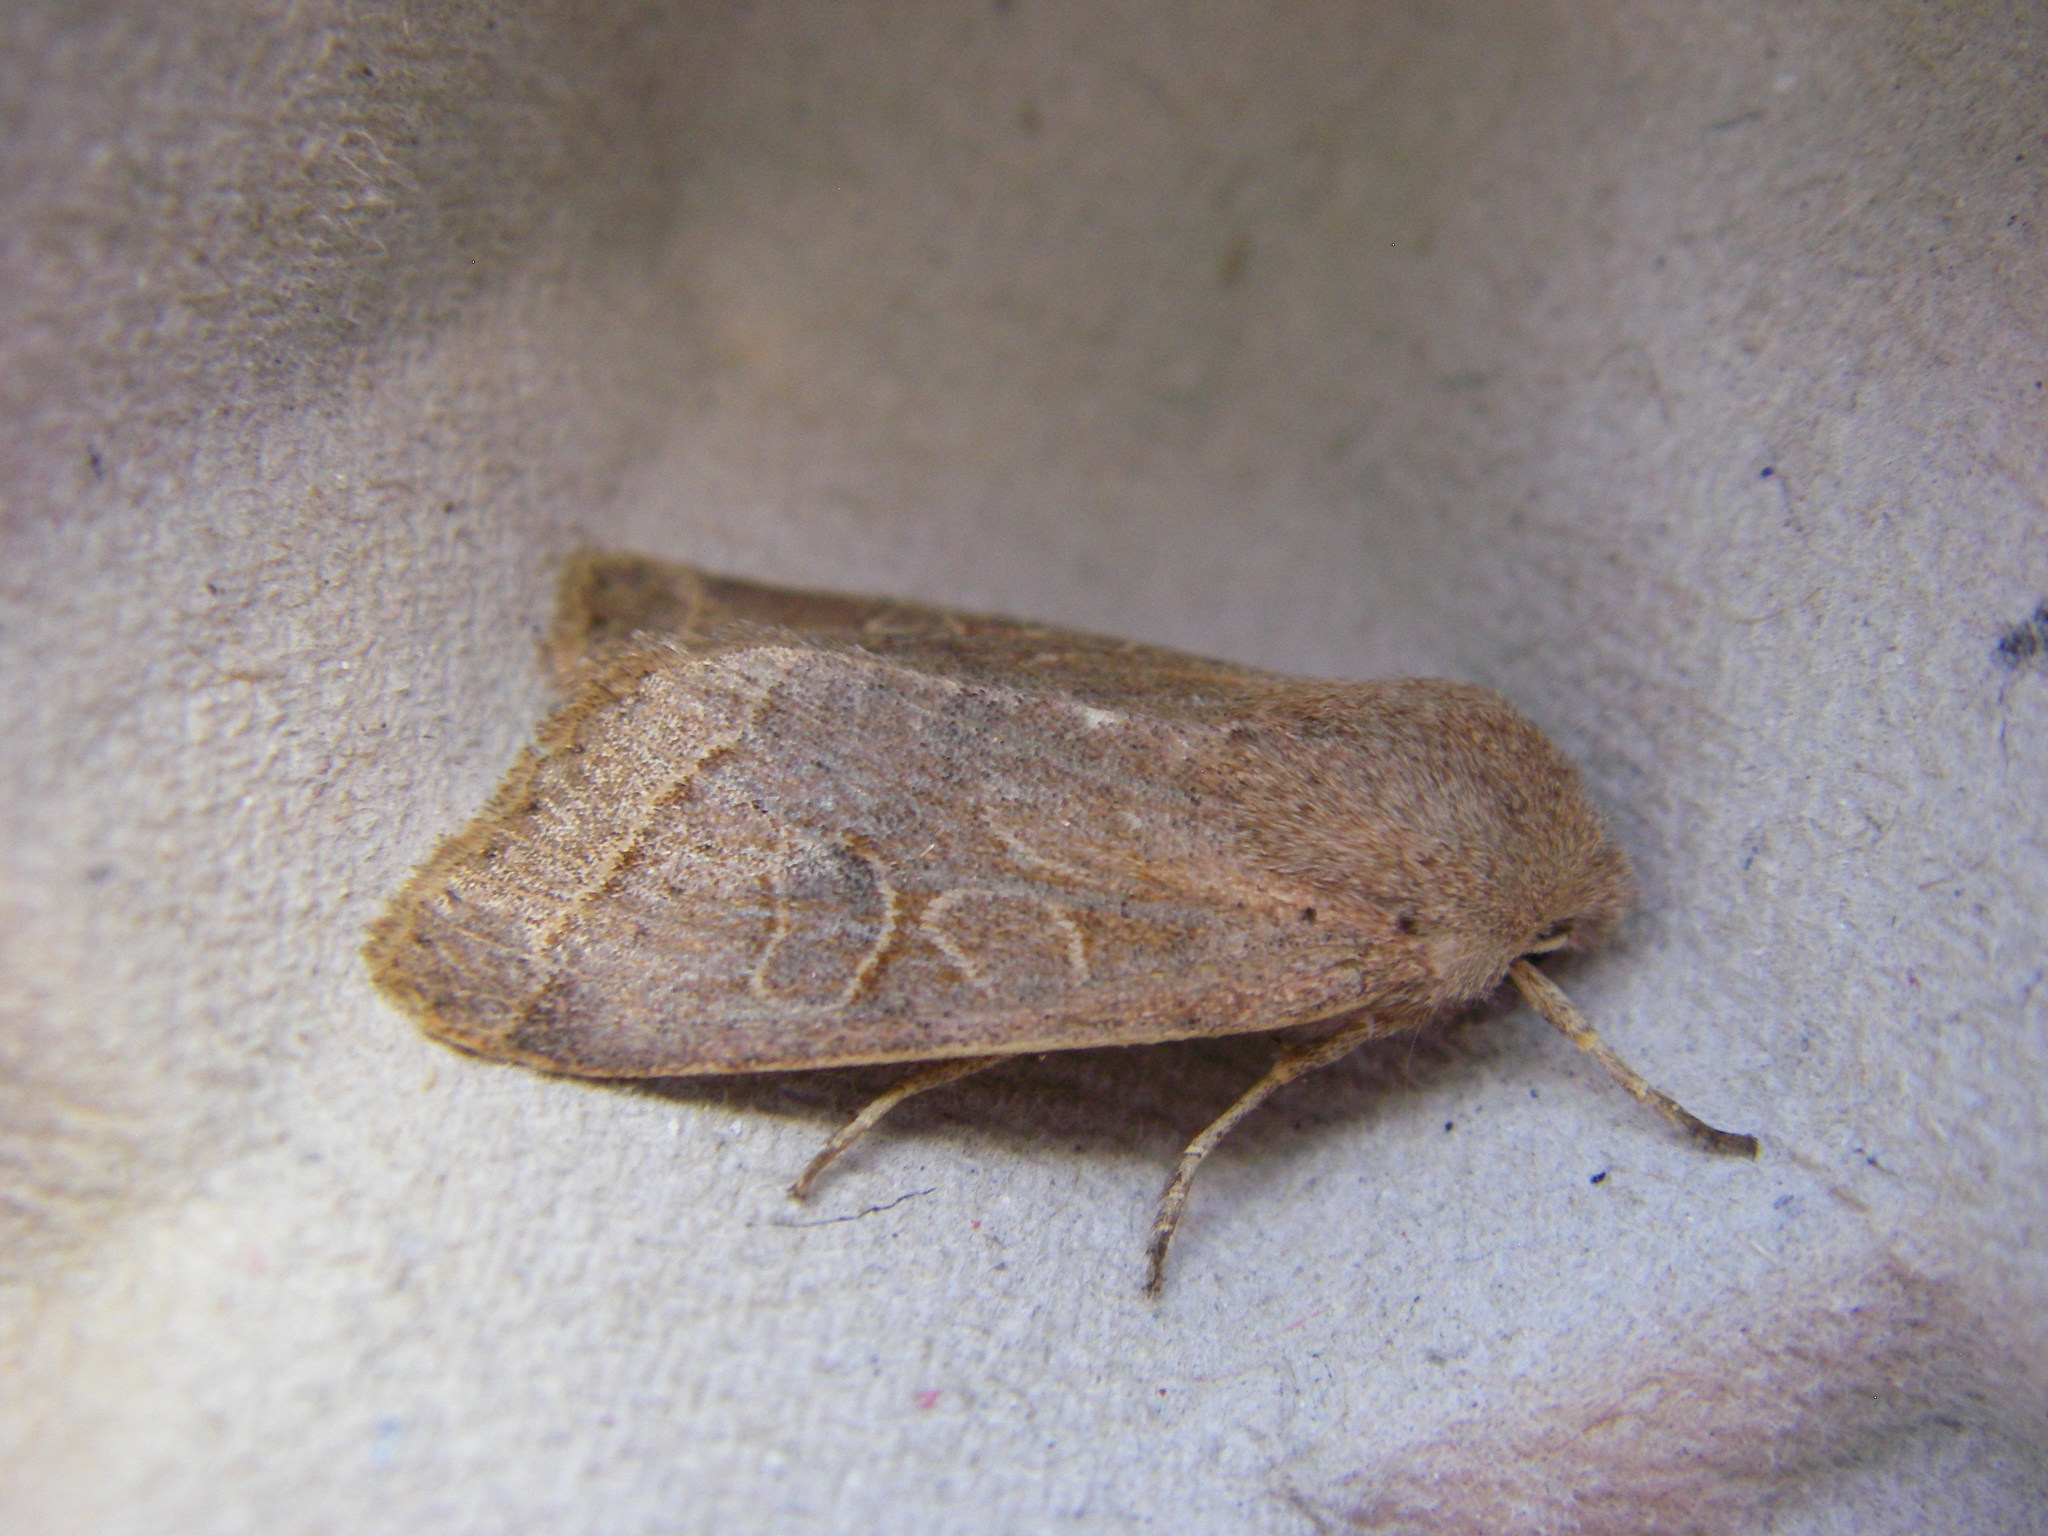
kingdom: Animalia
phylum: Arthropoda
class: Insecta
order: Lepidoptera
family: Noctuidae
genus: Orthosia
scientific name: Orthosia cerasi
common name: Common quaker
